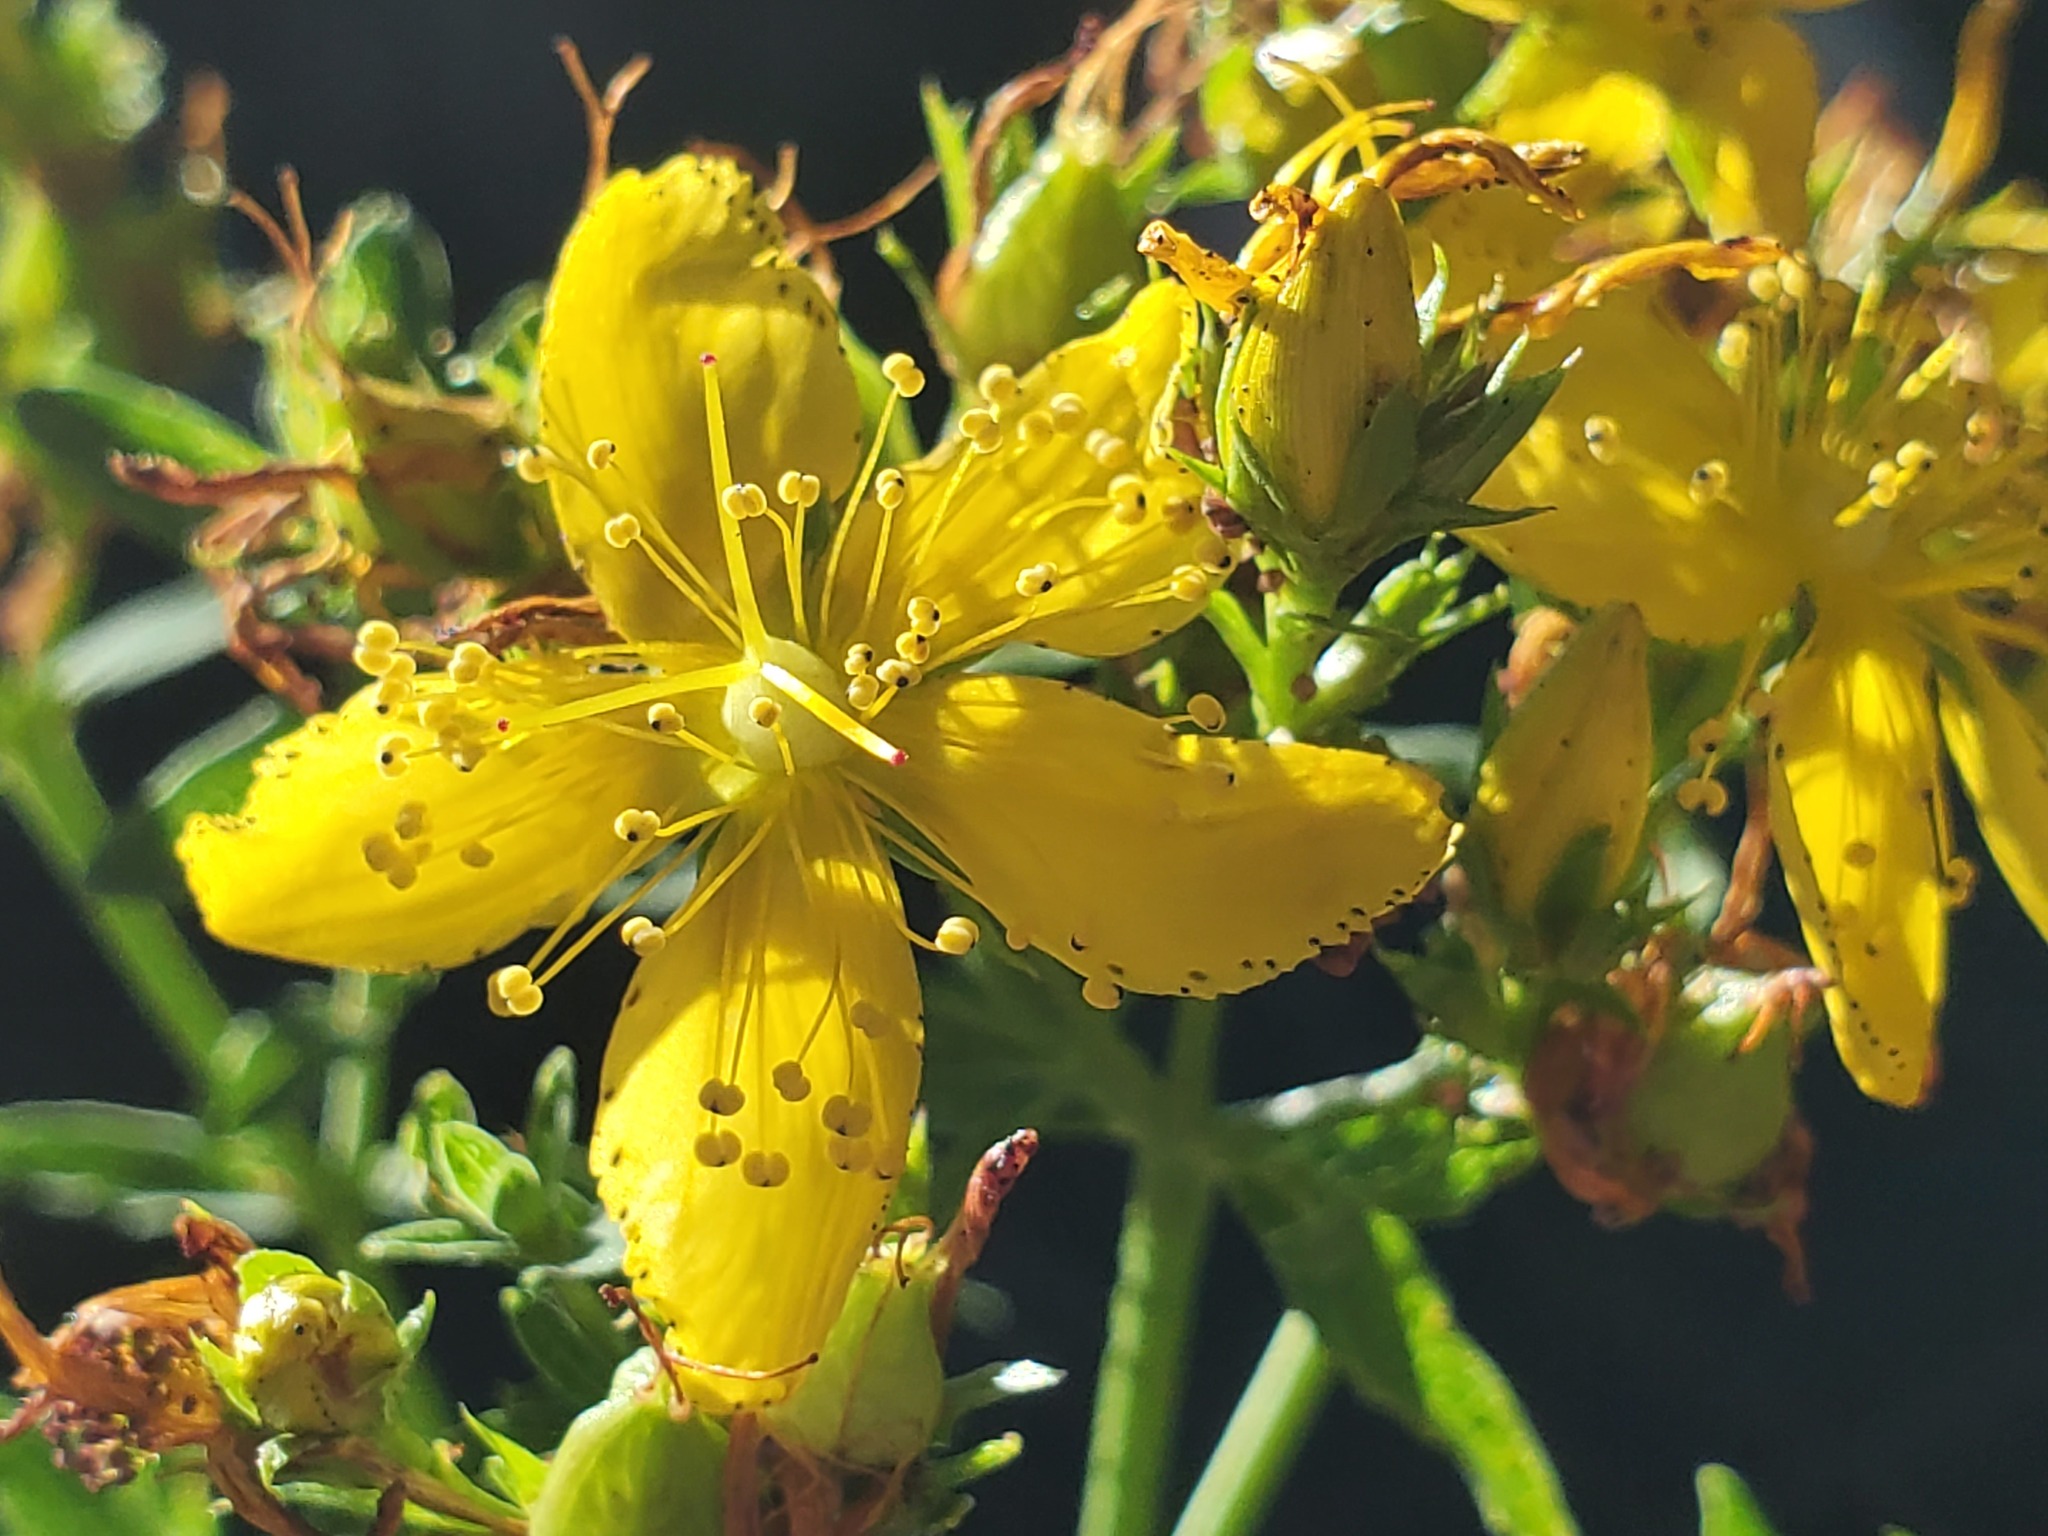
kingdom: Plantae
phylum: Tracheophyta
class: Magnoliopsida
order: Malpighiales
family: Hypericaceae
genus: Hypericum
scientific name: Hypericum perforatum
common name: Common st. johnswort
